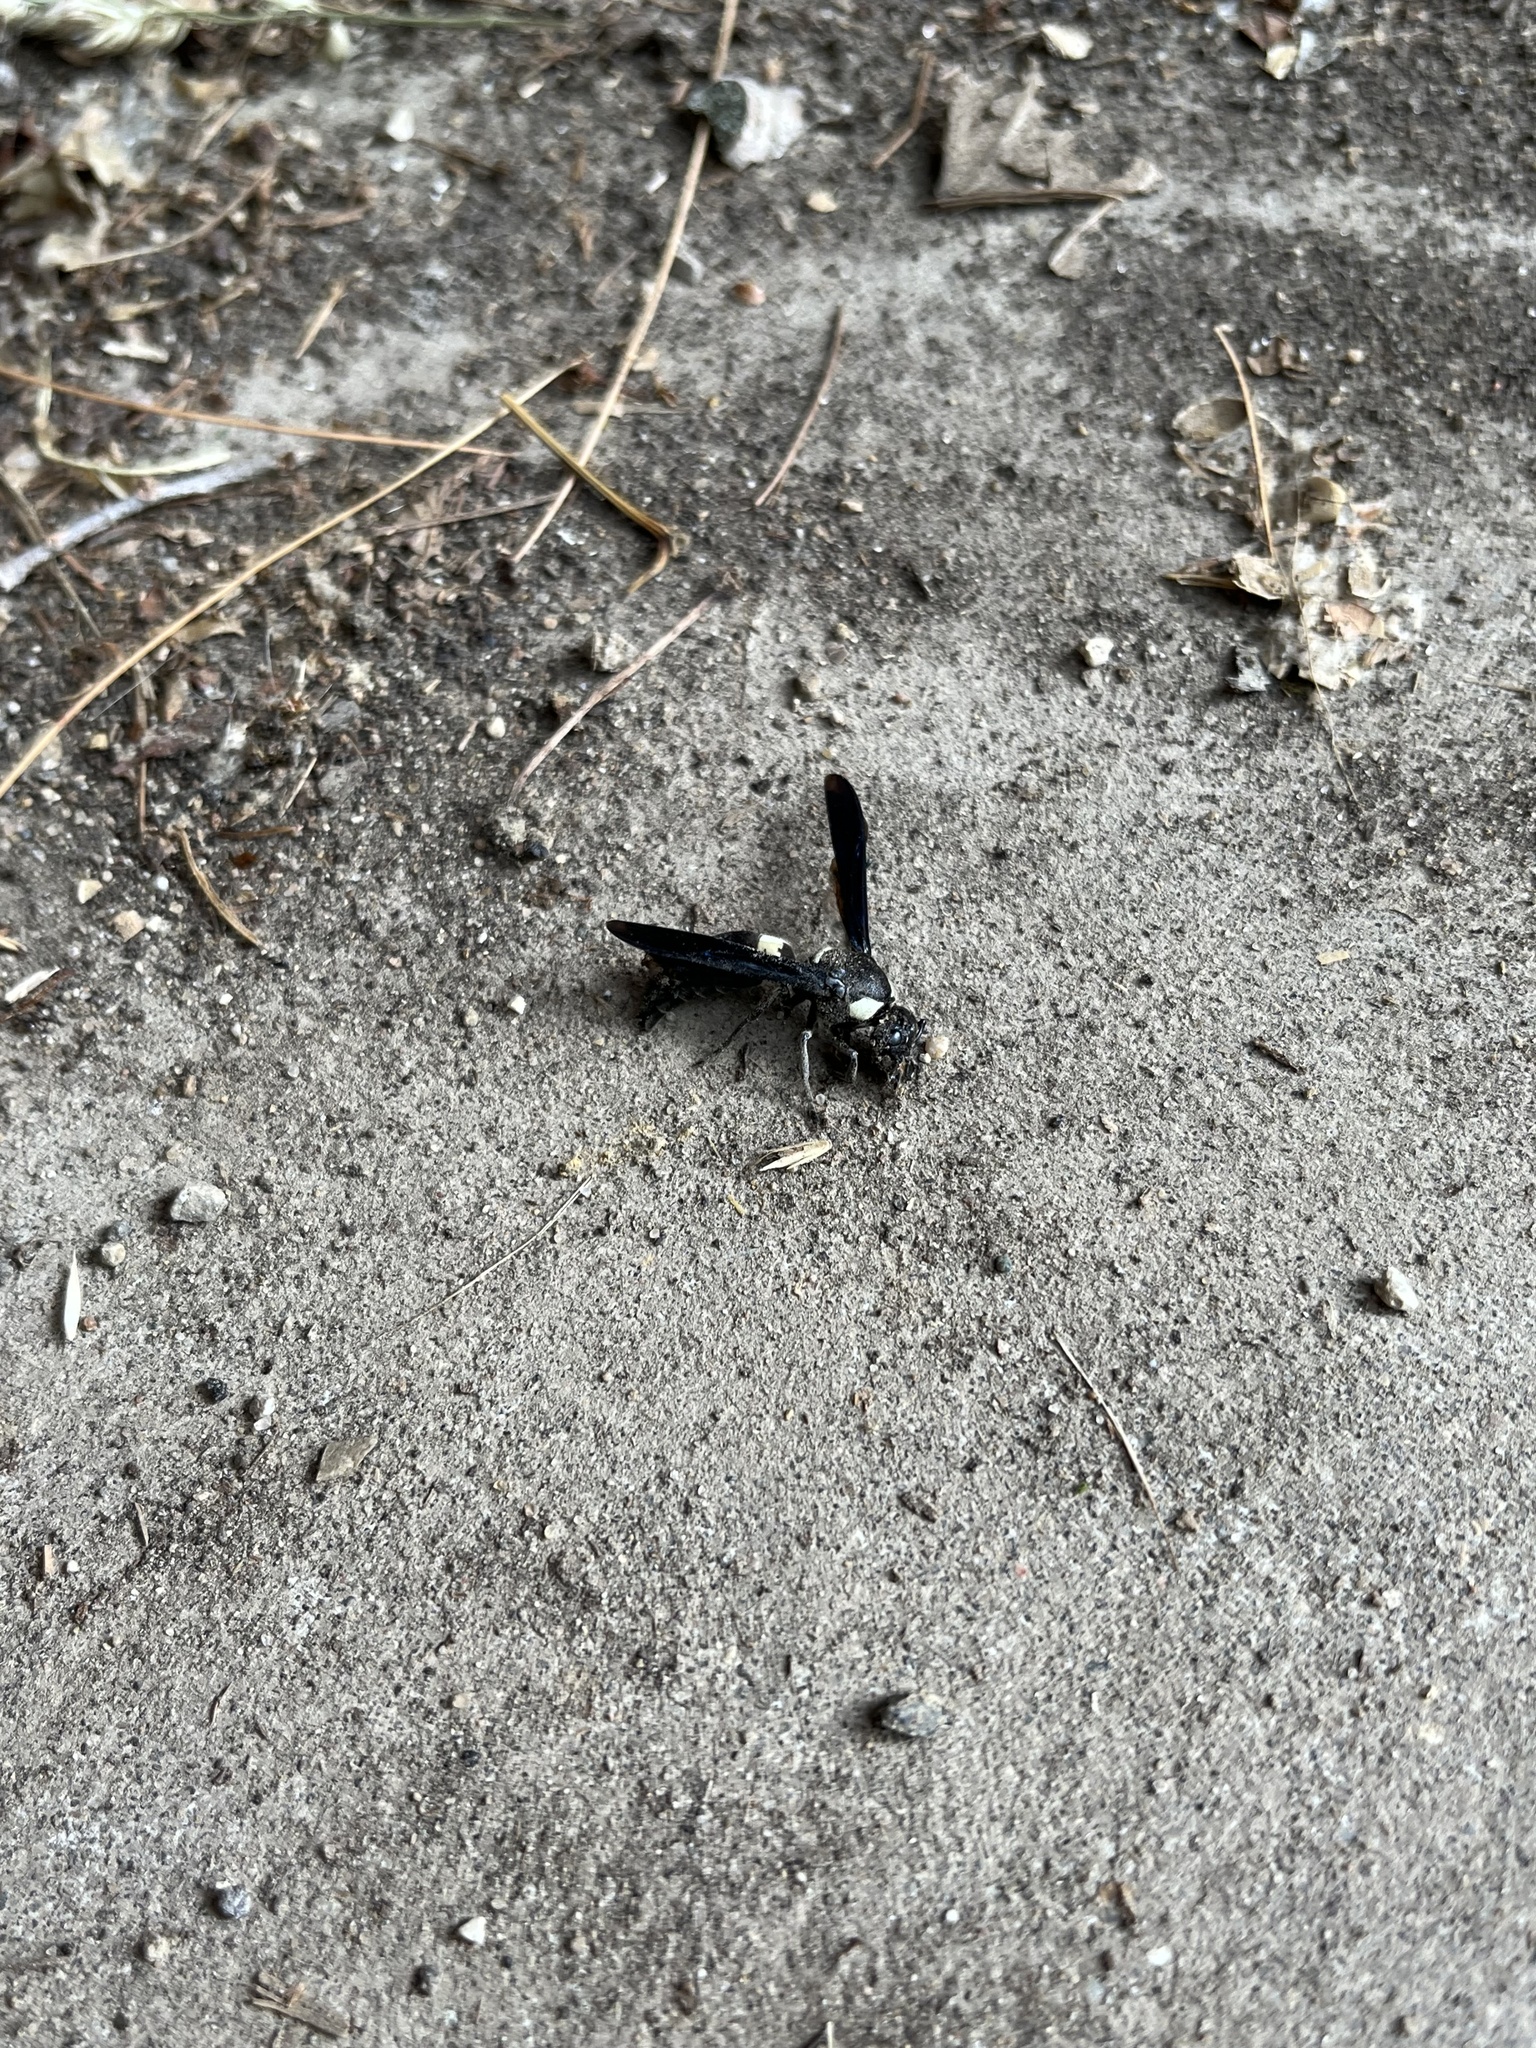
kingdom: Animalia
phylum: Arthropoda
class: Insecta
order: Hymenoptera
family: Eumenidae
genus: Monobia
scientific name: Monobia quadridens
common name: Four-toothed mason wasp
